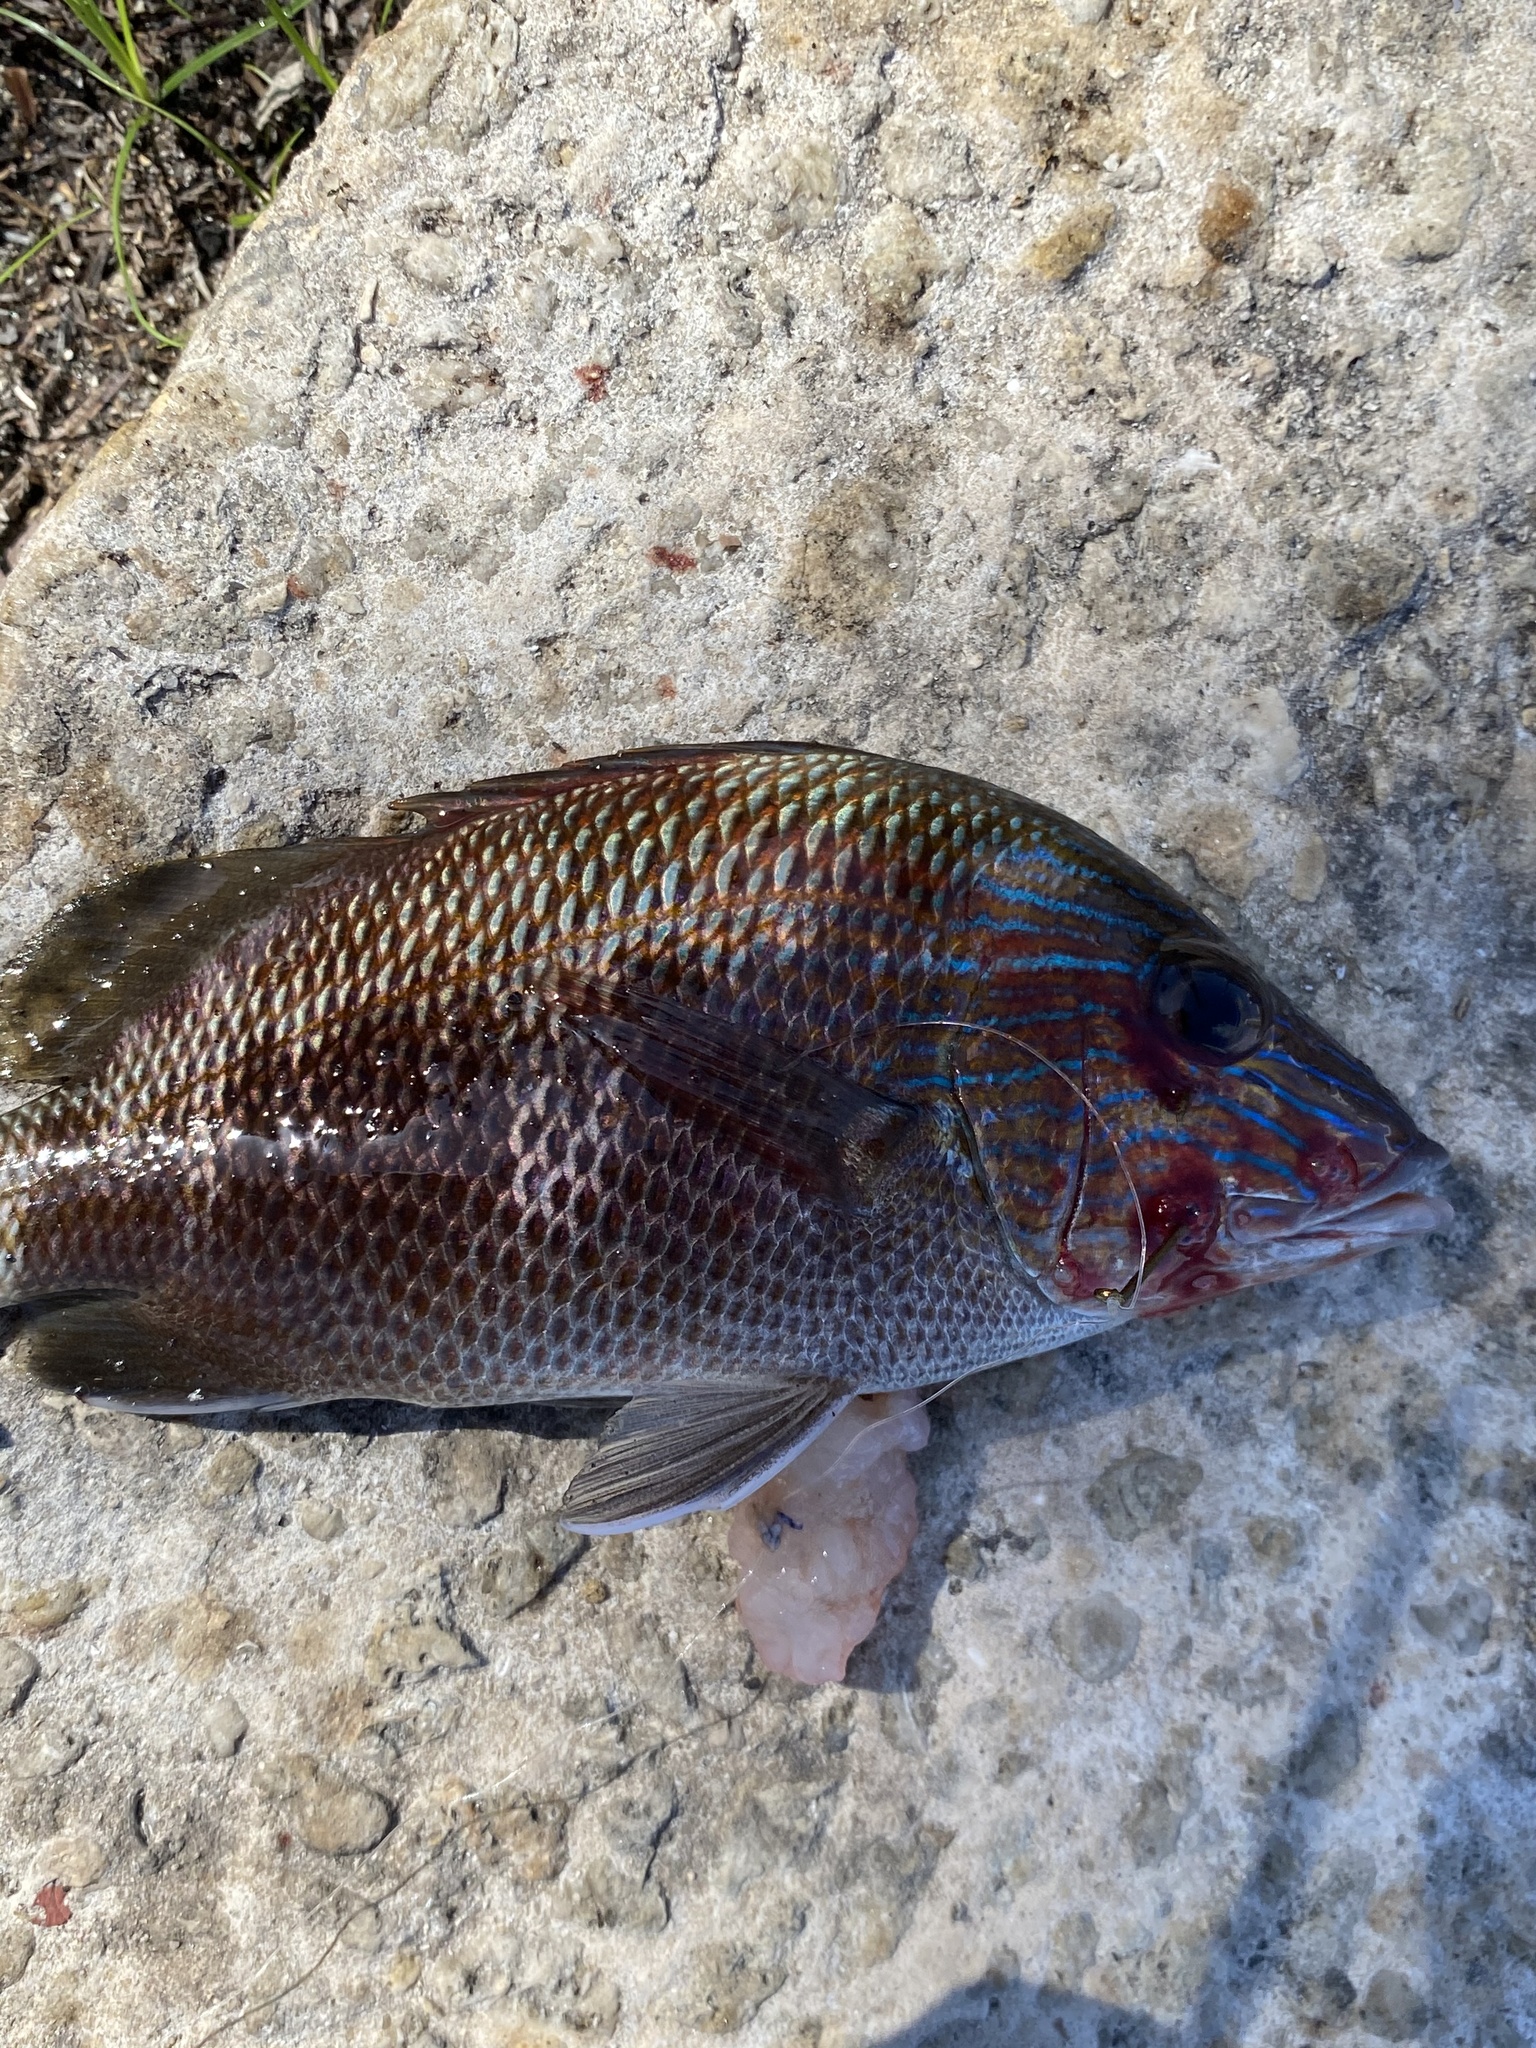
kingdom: Animalia
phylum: Chordata
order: Perciformes
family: Haemulidae
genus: Haemulon
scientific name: Haemulon plumierii
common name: White grunt
